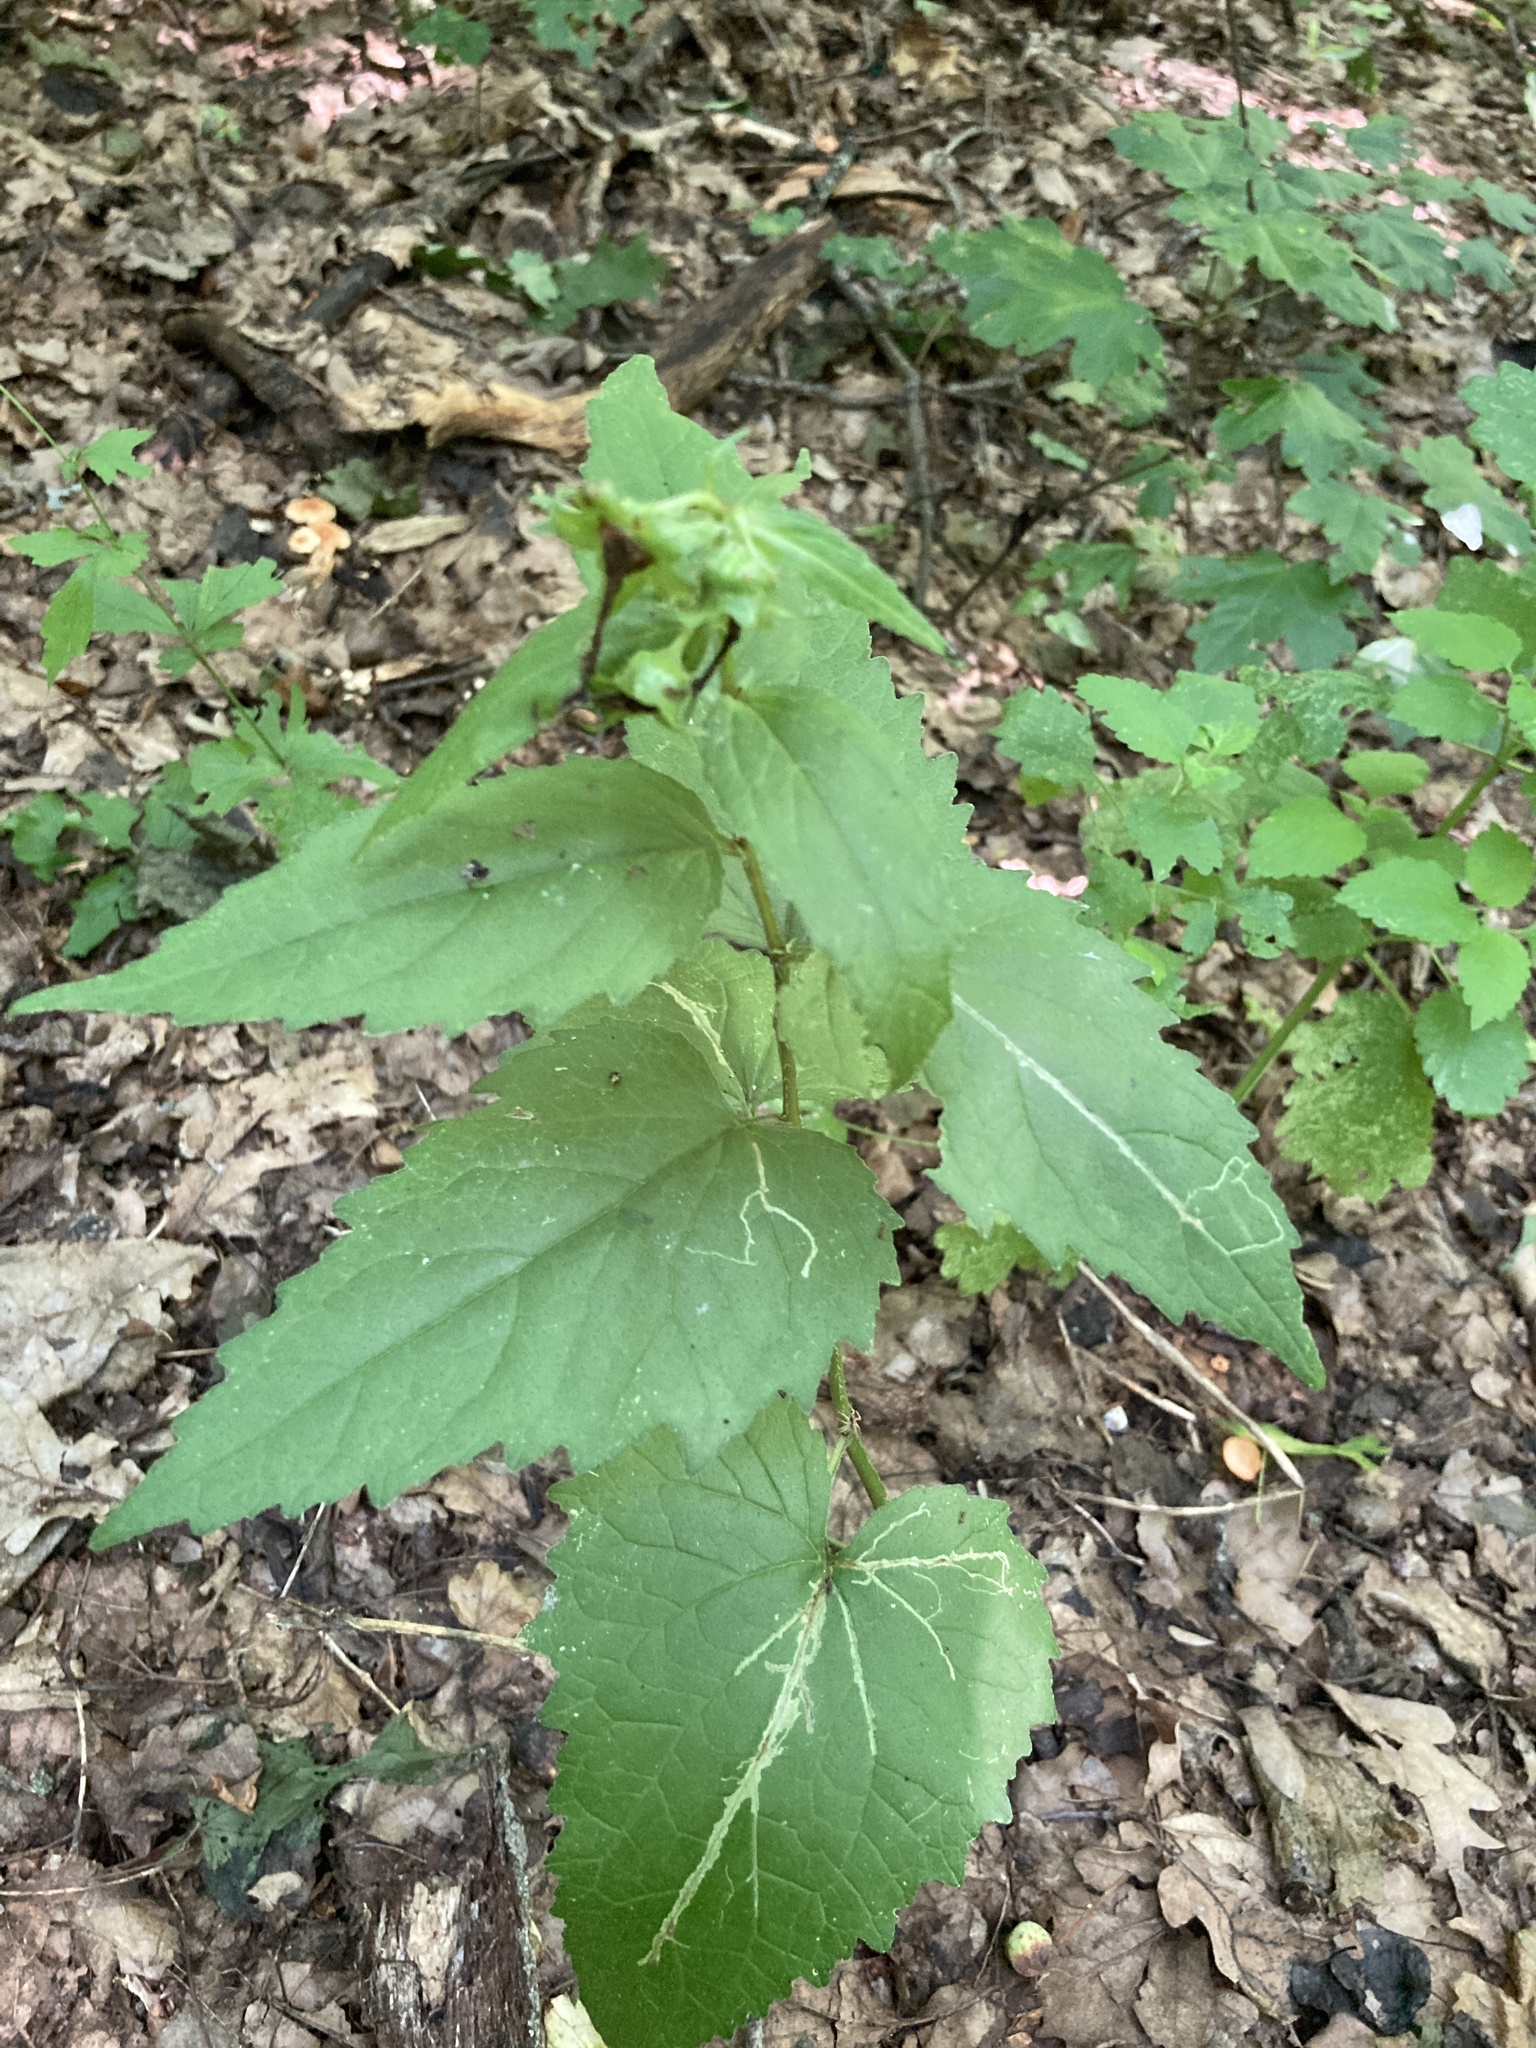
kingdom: Plantae
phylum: Tracheophyta
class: Magnoliopsida
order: Asterales
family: Campanulaceae
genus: Campanula
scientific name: Campanula trachelium
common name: Nettle-leaved bellflower
